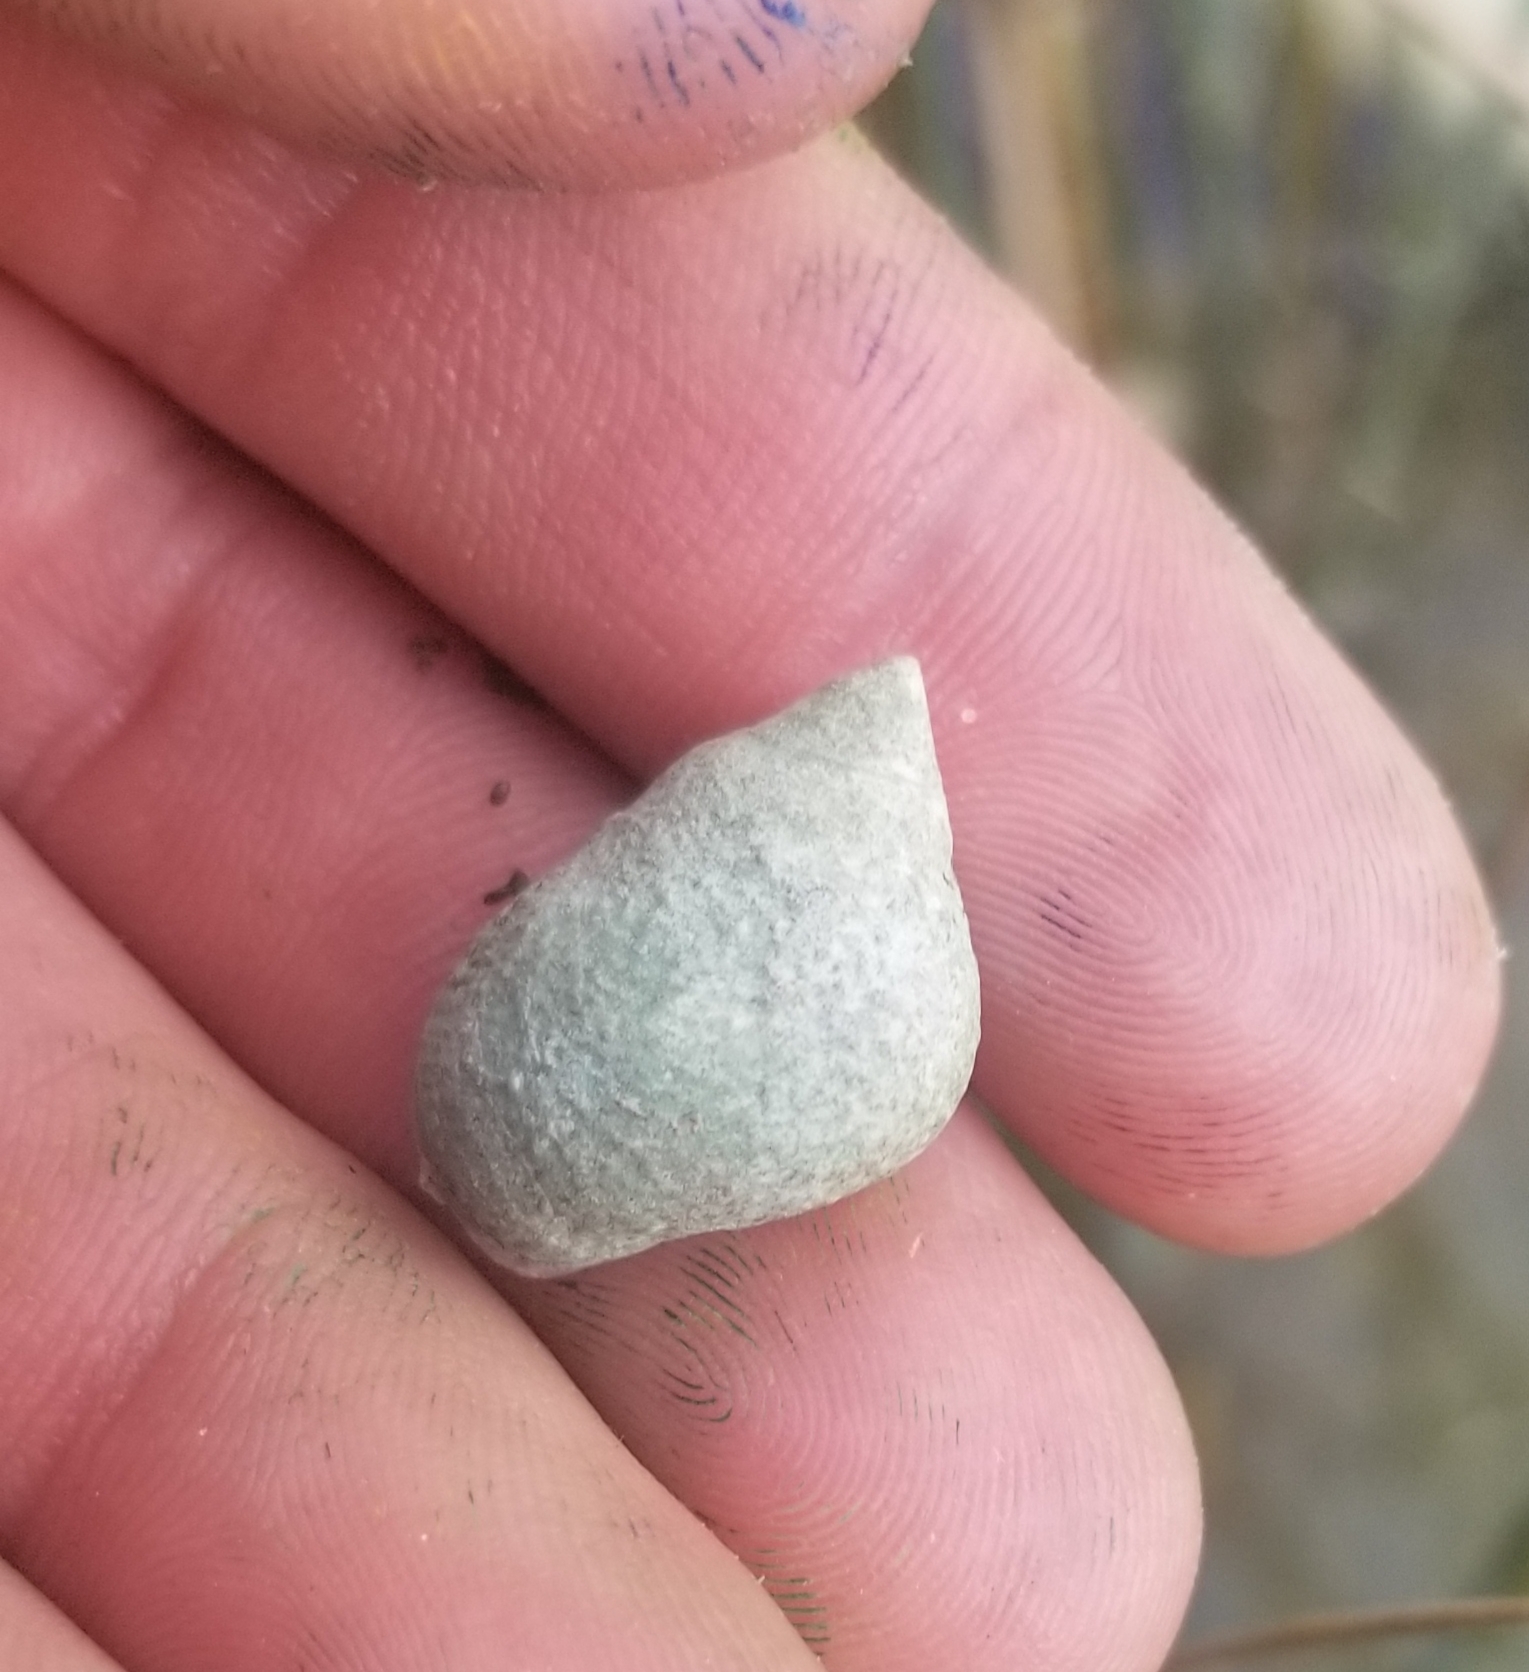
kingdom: Animalia
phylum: Mollusca
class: Gastropoda
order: Littorinimorpha
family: Littorinidae
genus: Littoraria
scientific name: Littoraria irrorata
